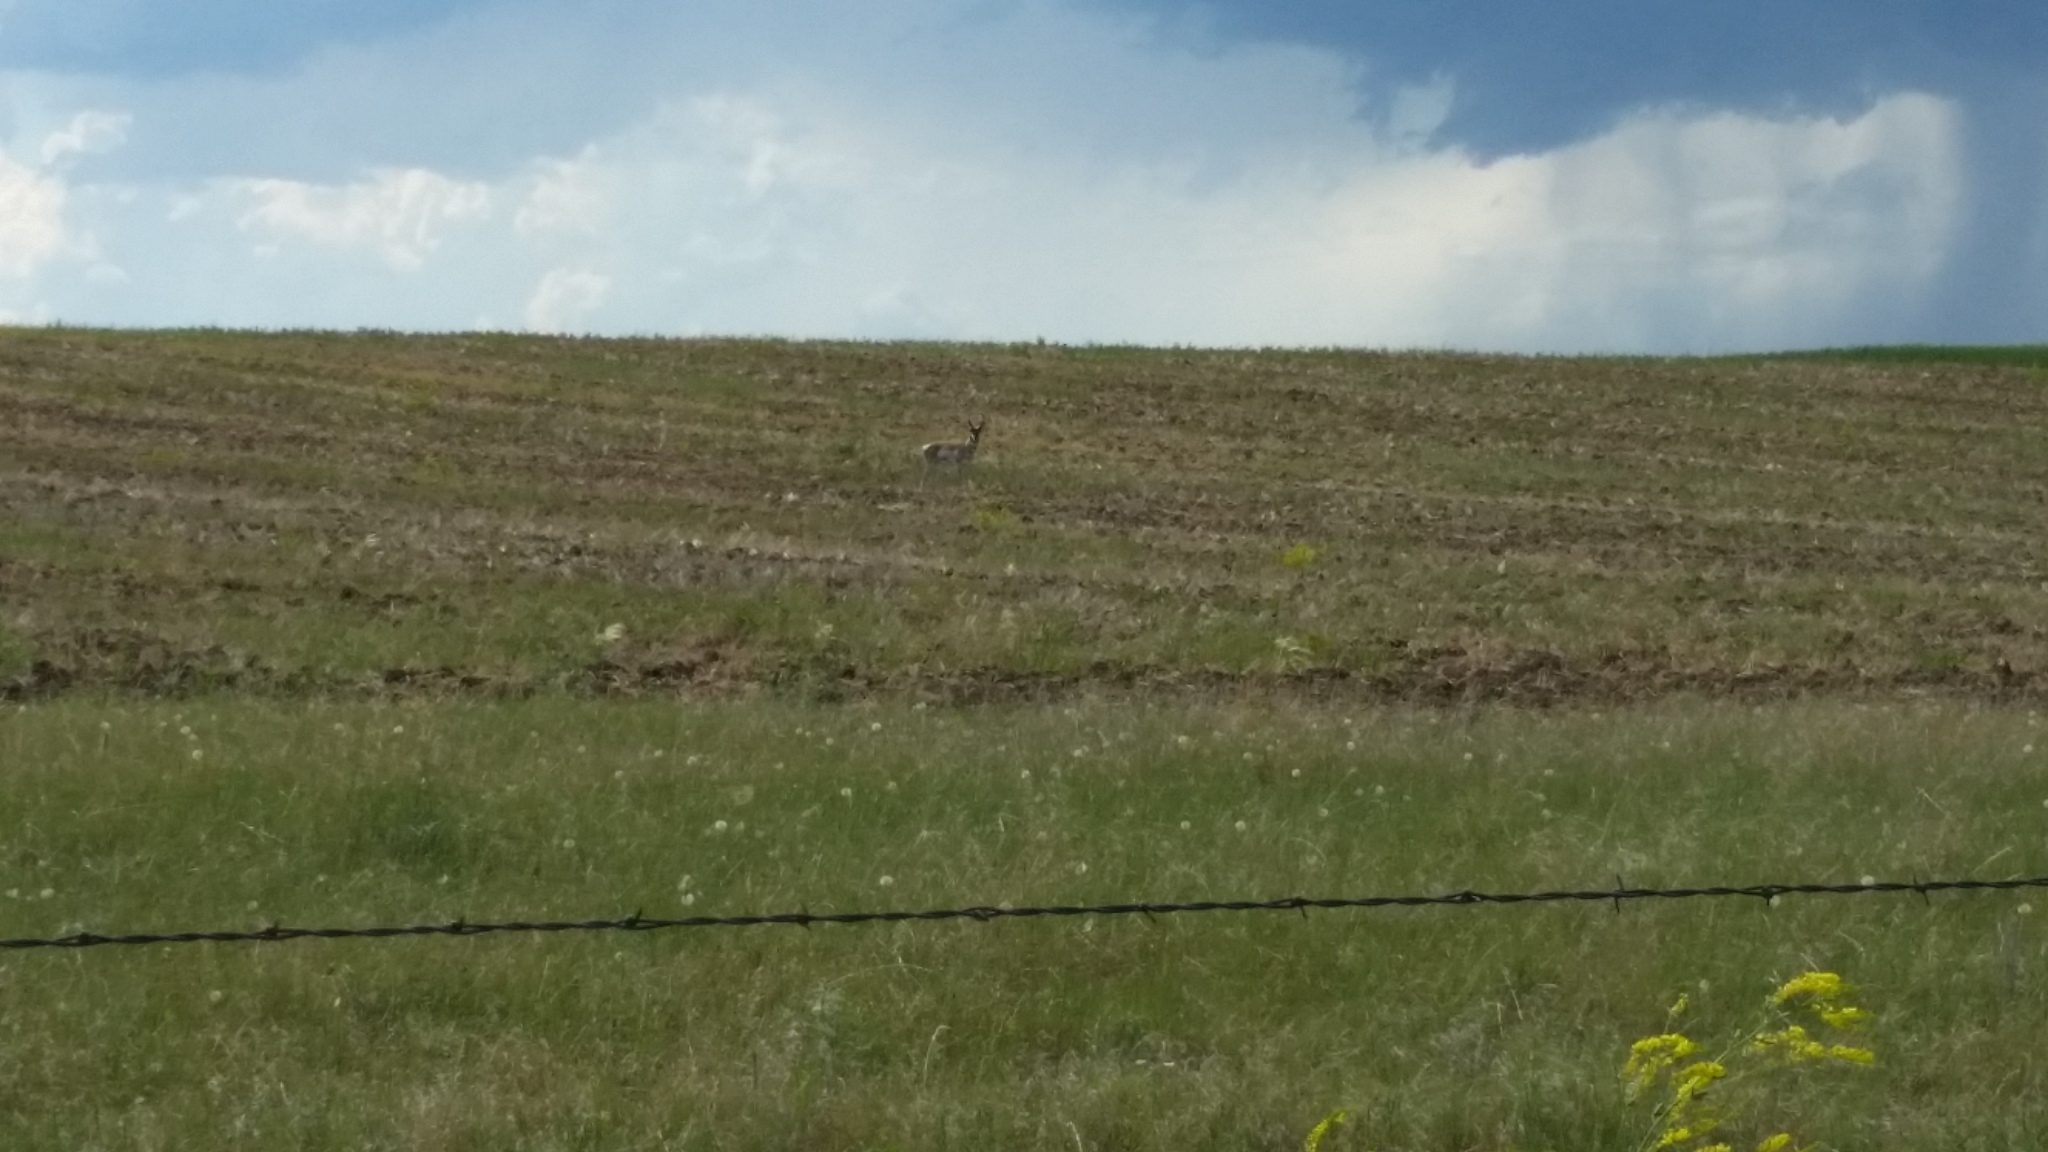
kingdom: Animalia
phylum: Chordata
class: Mammalia
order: Artiodactyla
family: Antilocapridae
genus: Antilocapra
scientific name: Antilocapra americana
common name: Pronghorn
